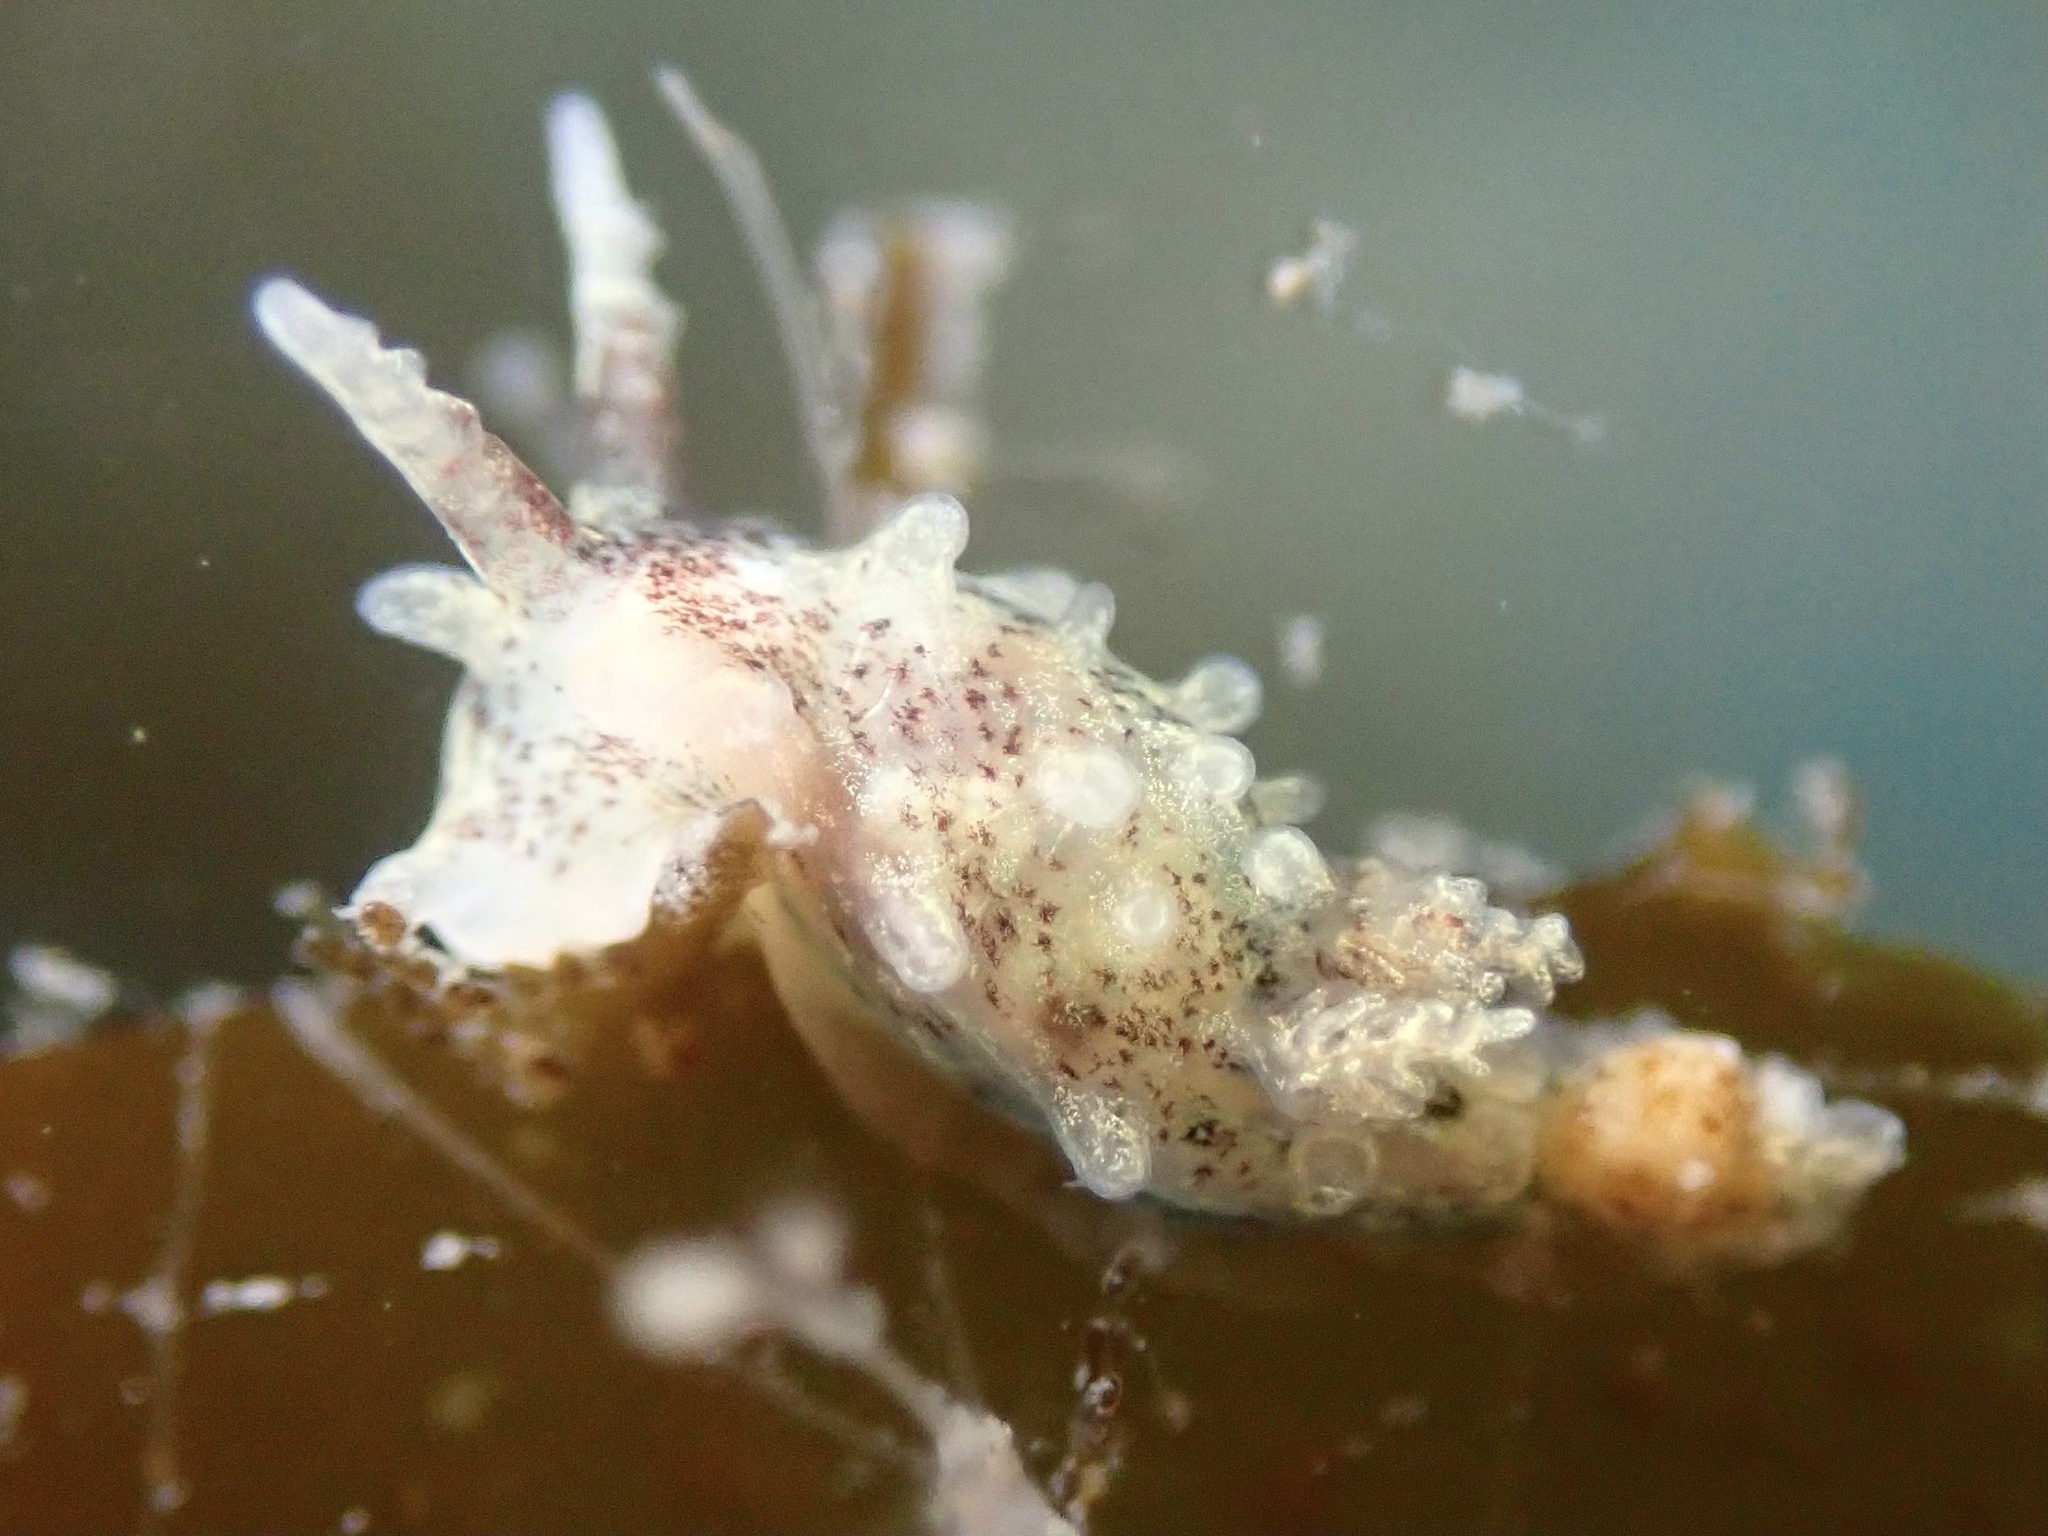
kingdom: Animalia
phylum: Mollusca
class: Gastropoda
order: Nudibranchia
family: Goniodorididae
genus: Okenia
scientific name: Okenia
